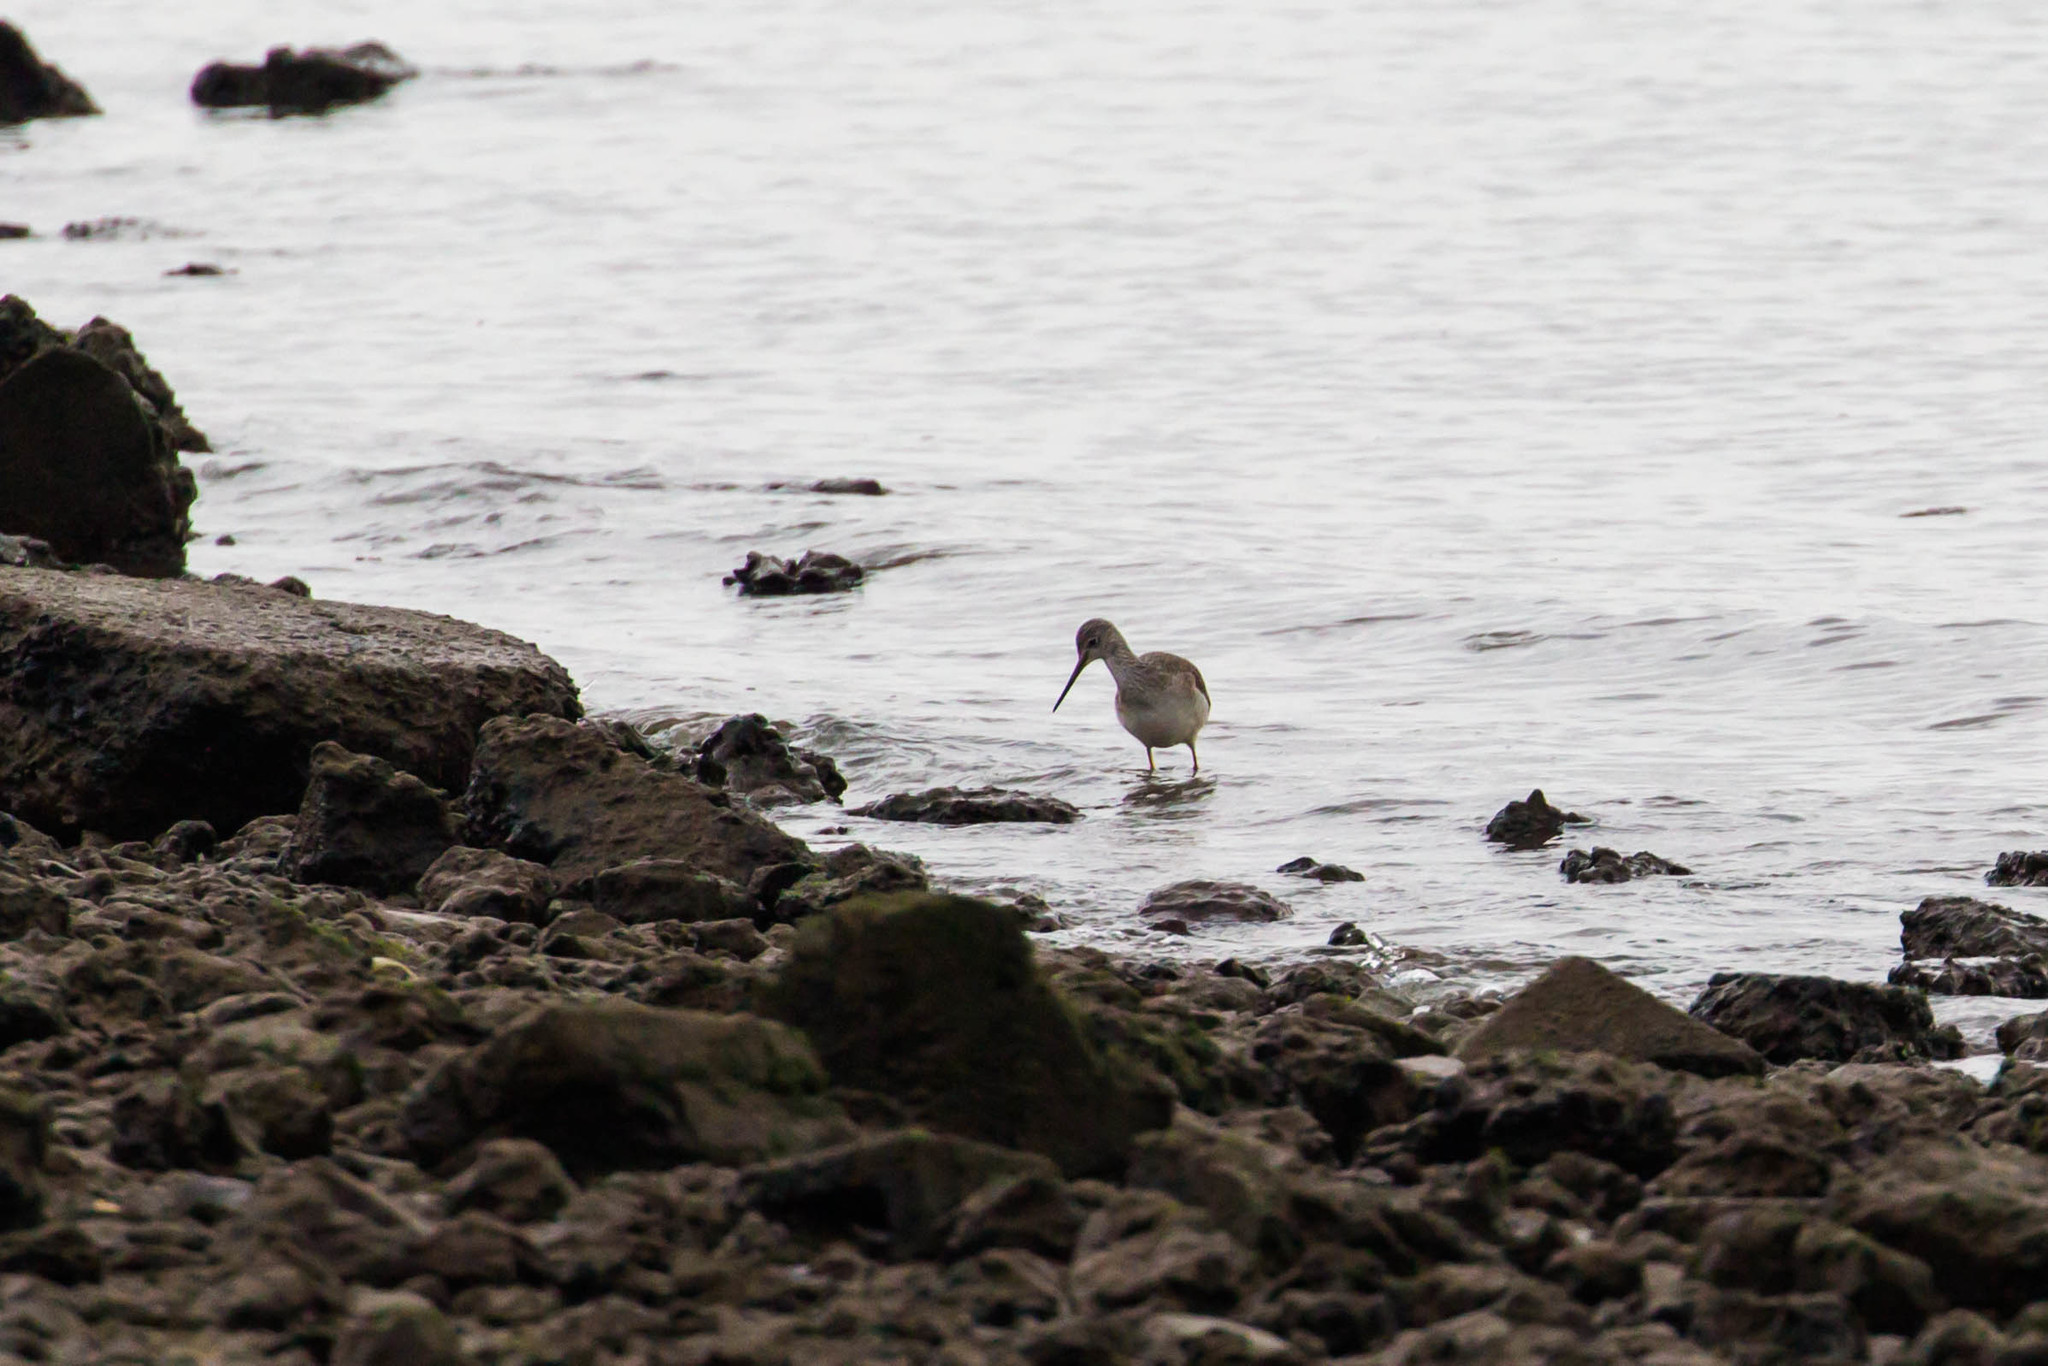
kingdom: Animalia
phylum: Chordata
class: Aves
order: Charadriiformes
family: Scolopacidae
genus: Tringa
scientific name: Tringa melanoleuca
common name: Greater yellowlegs
